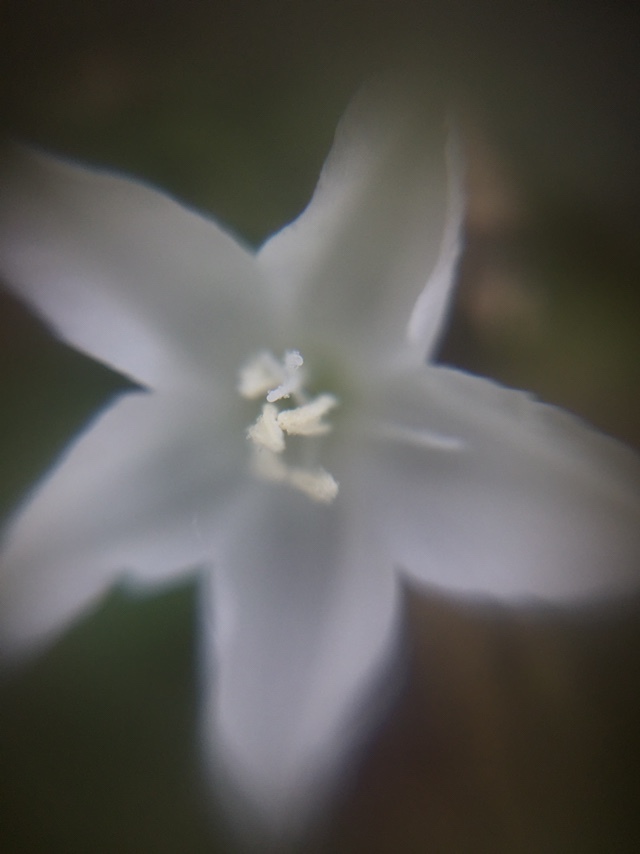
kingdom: Plantae
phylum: Tracheophyta
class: Magnoliopsida
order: Solanales
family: Convolvulaceae
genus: Evolvulus
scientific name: Evolvulus nummularius
